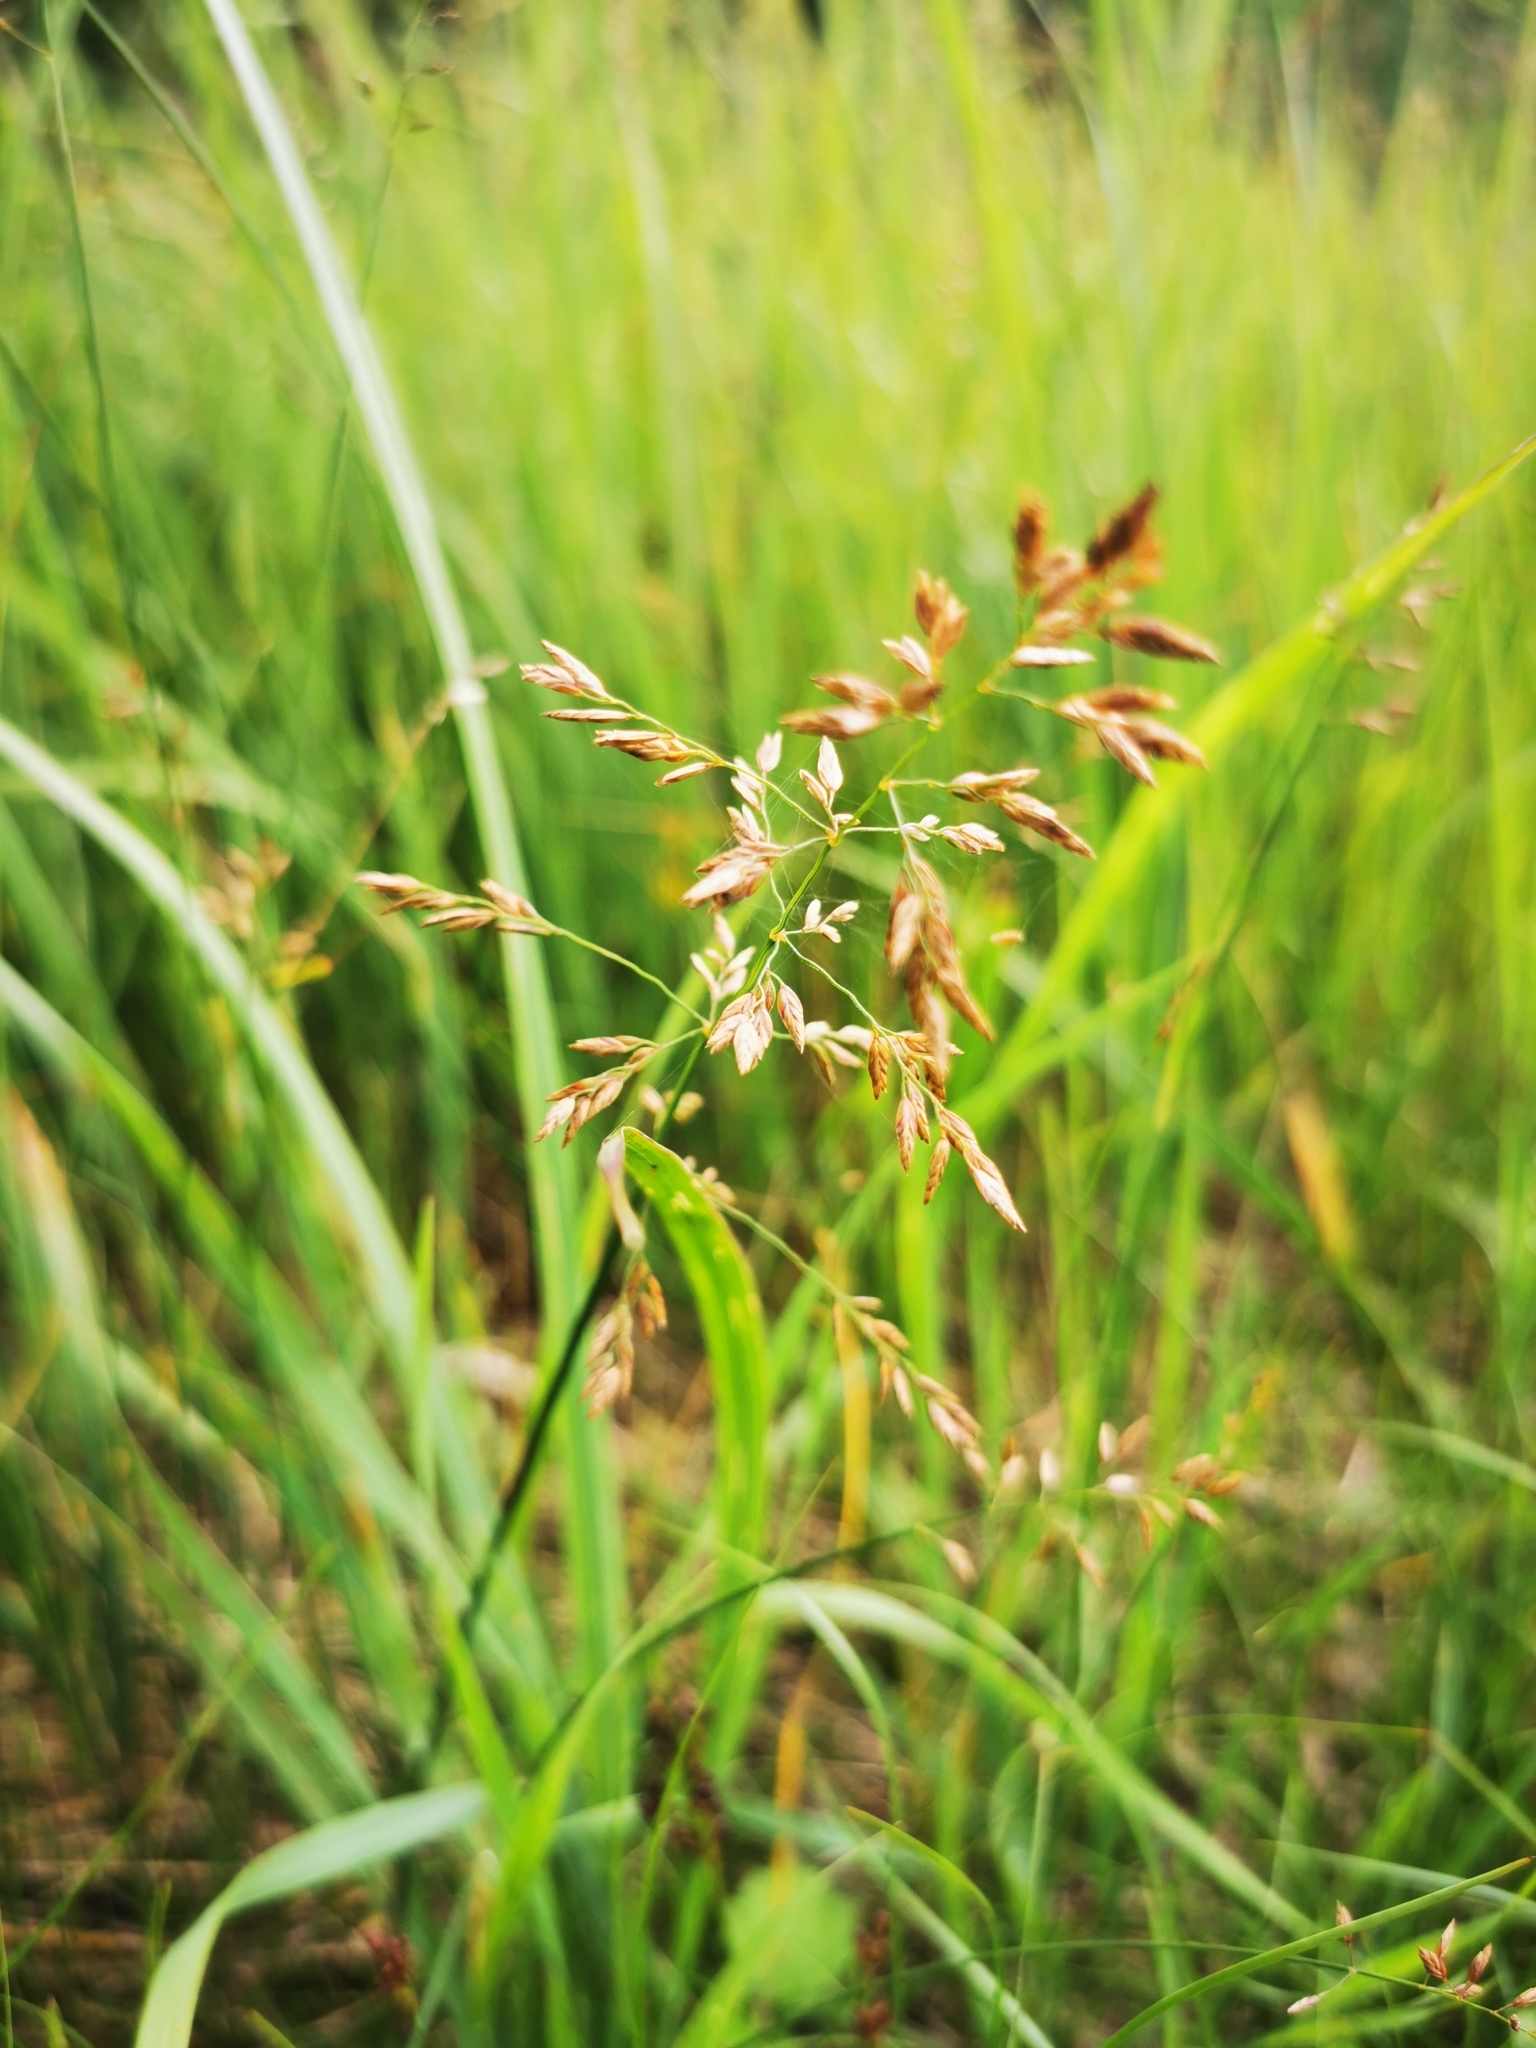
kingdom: Plantae
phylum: Tracheophyta
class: Liliopsida
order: Poales
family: Poaceae
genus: Poa
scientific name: Poa compressa
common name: Canada bluegrass
